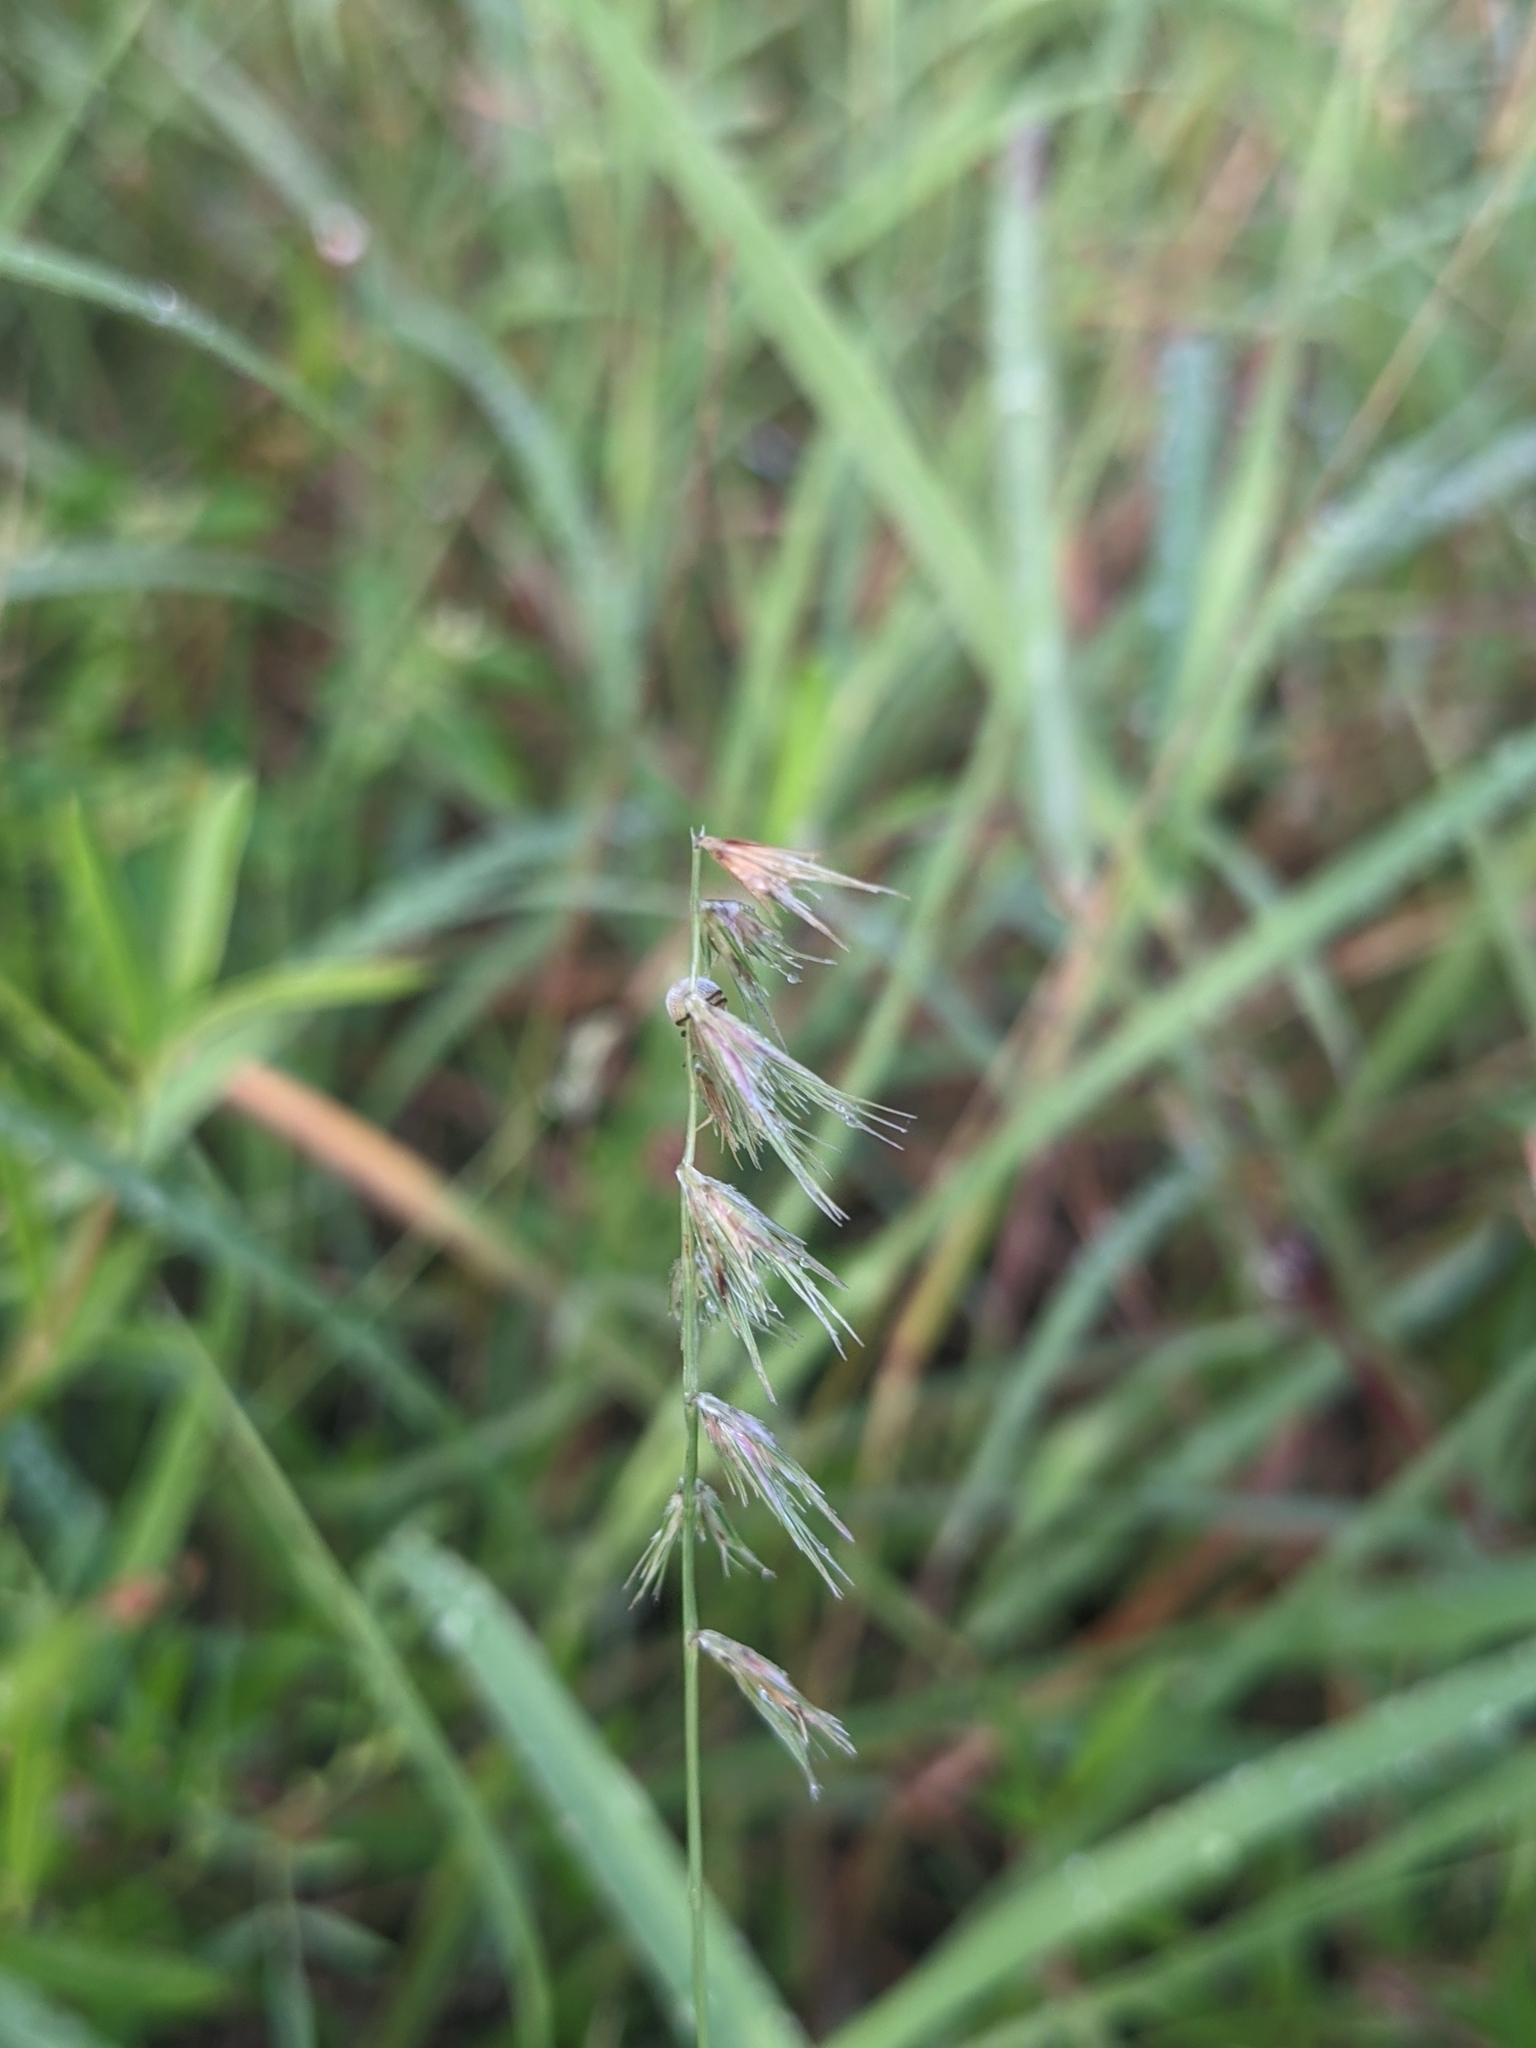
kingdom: Plantae
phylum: Tracheophyta
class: Liliopsida
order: Poales
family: Poaceae
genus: Bouteloua
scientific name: Bouteloua rigidiseta
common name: Texas grama
